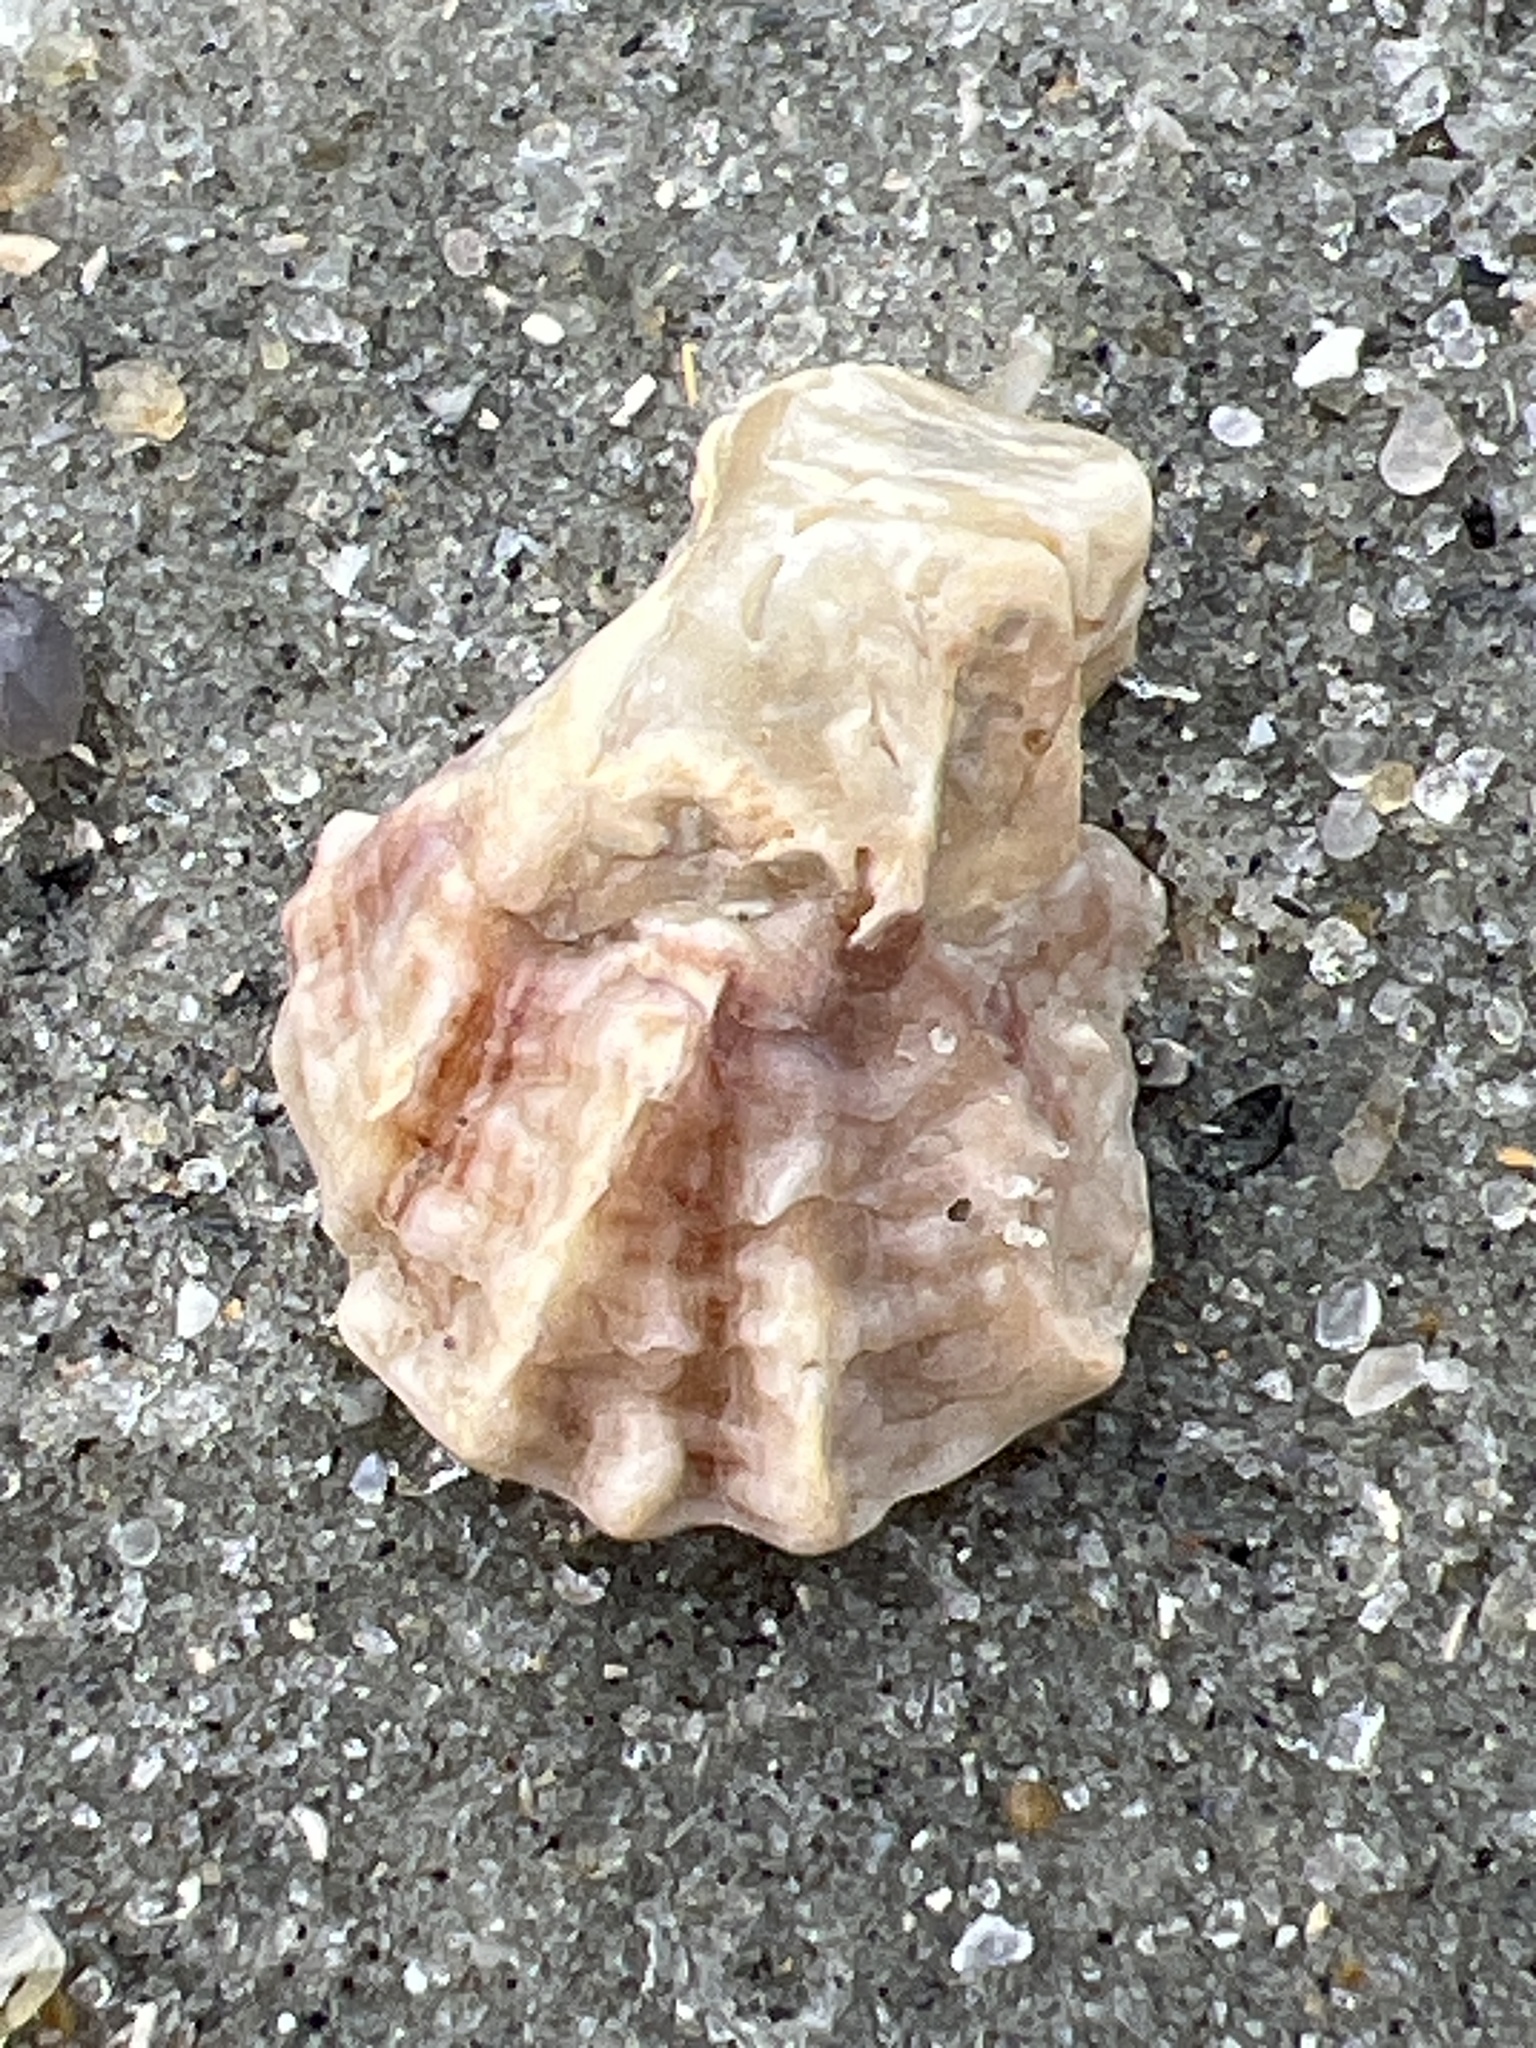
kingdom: Animalia
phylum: Mollusca
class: Bivalvia
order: Ostreida
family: Ostreidae
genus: Crassostrea
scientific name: Crassostrea virginica
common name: American oyster
